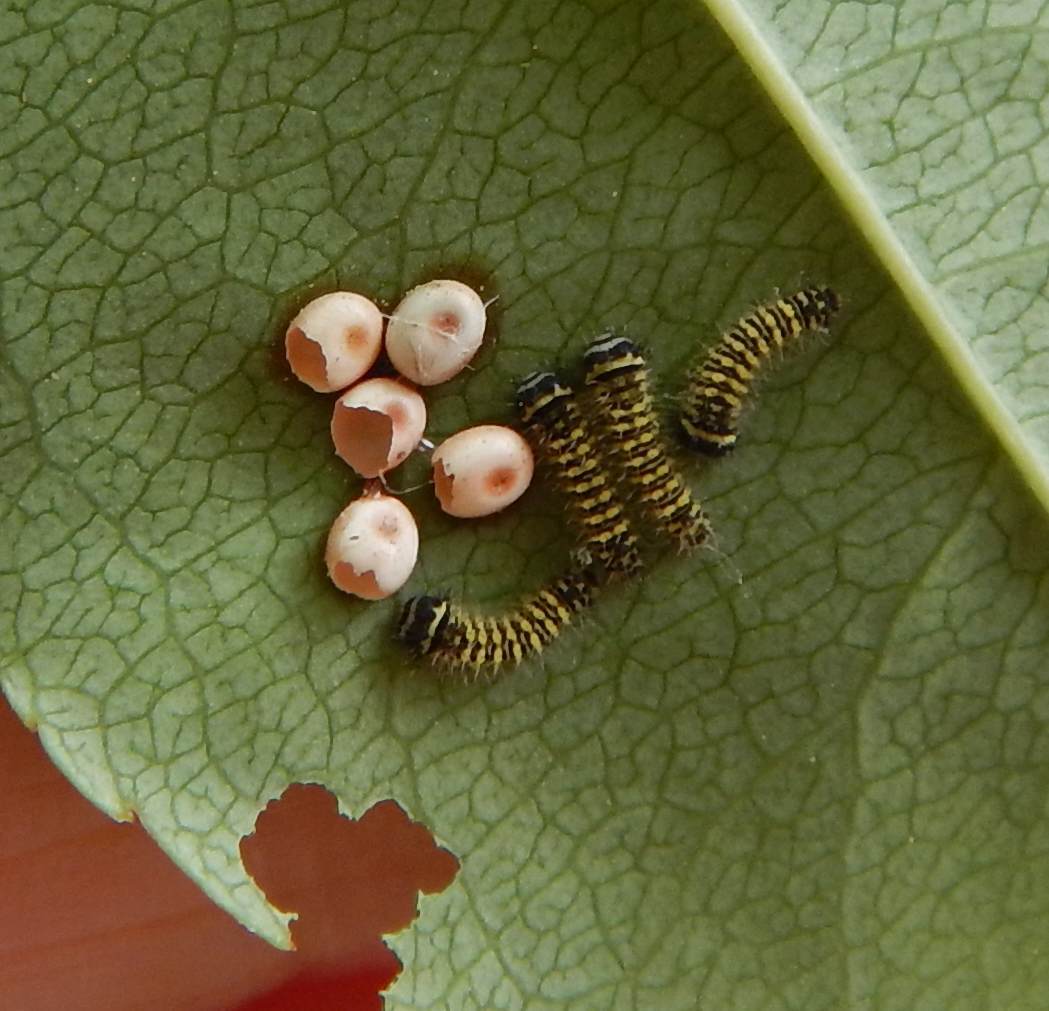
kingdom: Animalia
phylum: Arthropoda
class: Insecta
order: Lepidoptera
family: Saturniidae
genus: Callosamia
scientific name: Callosamia promethea
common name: Promethea silkmoth
